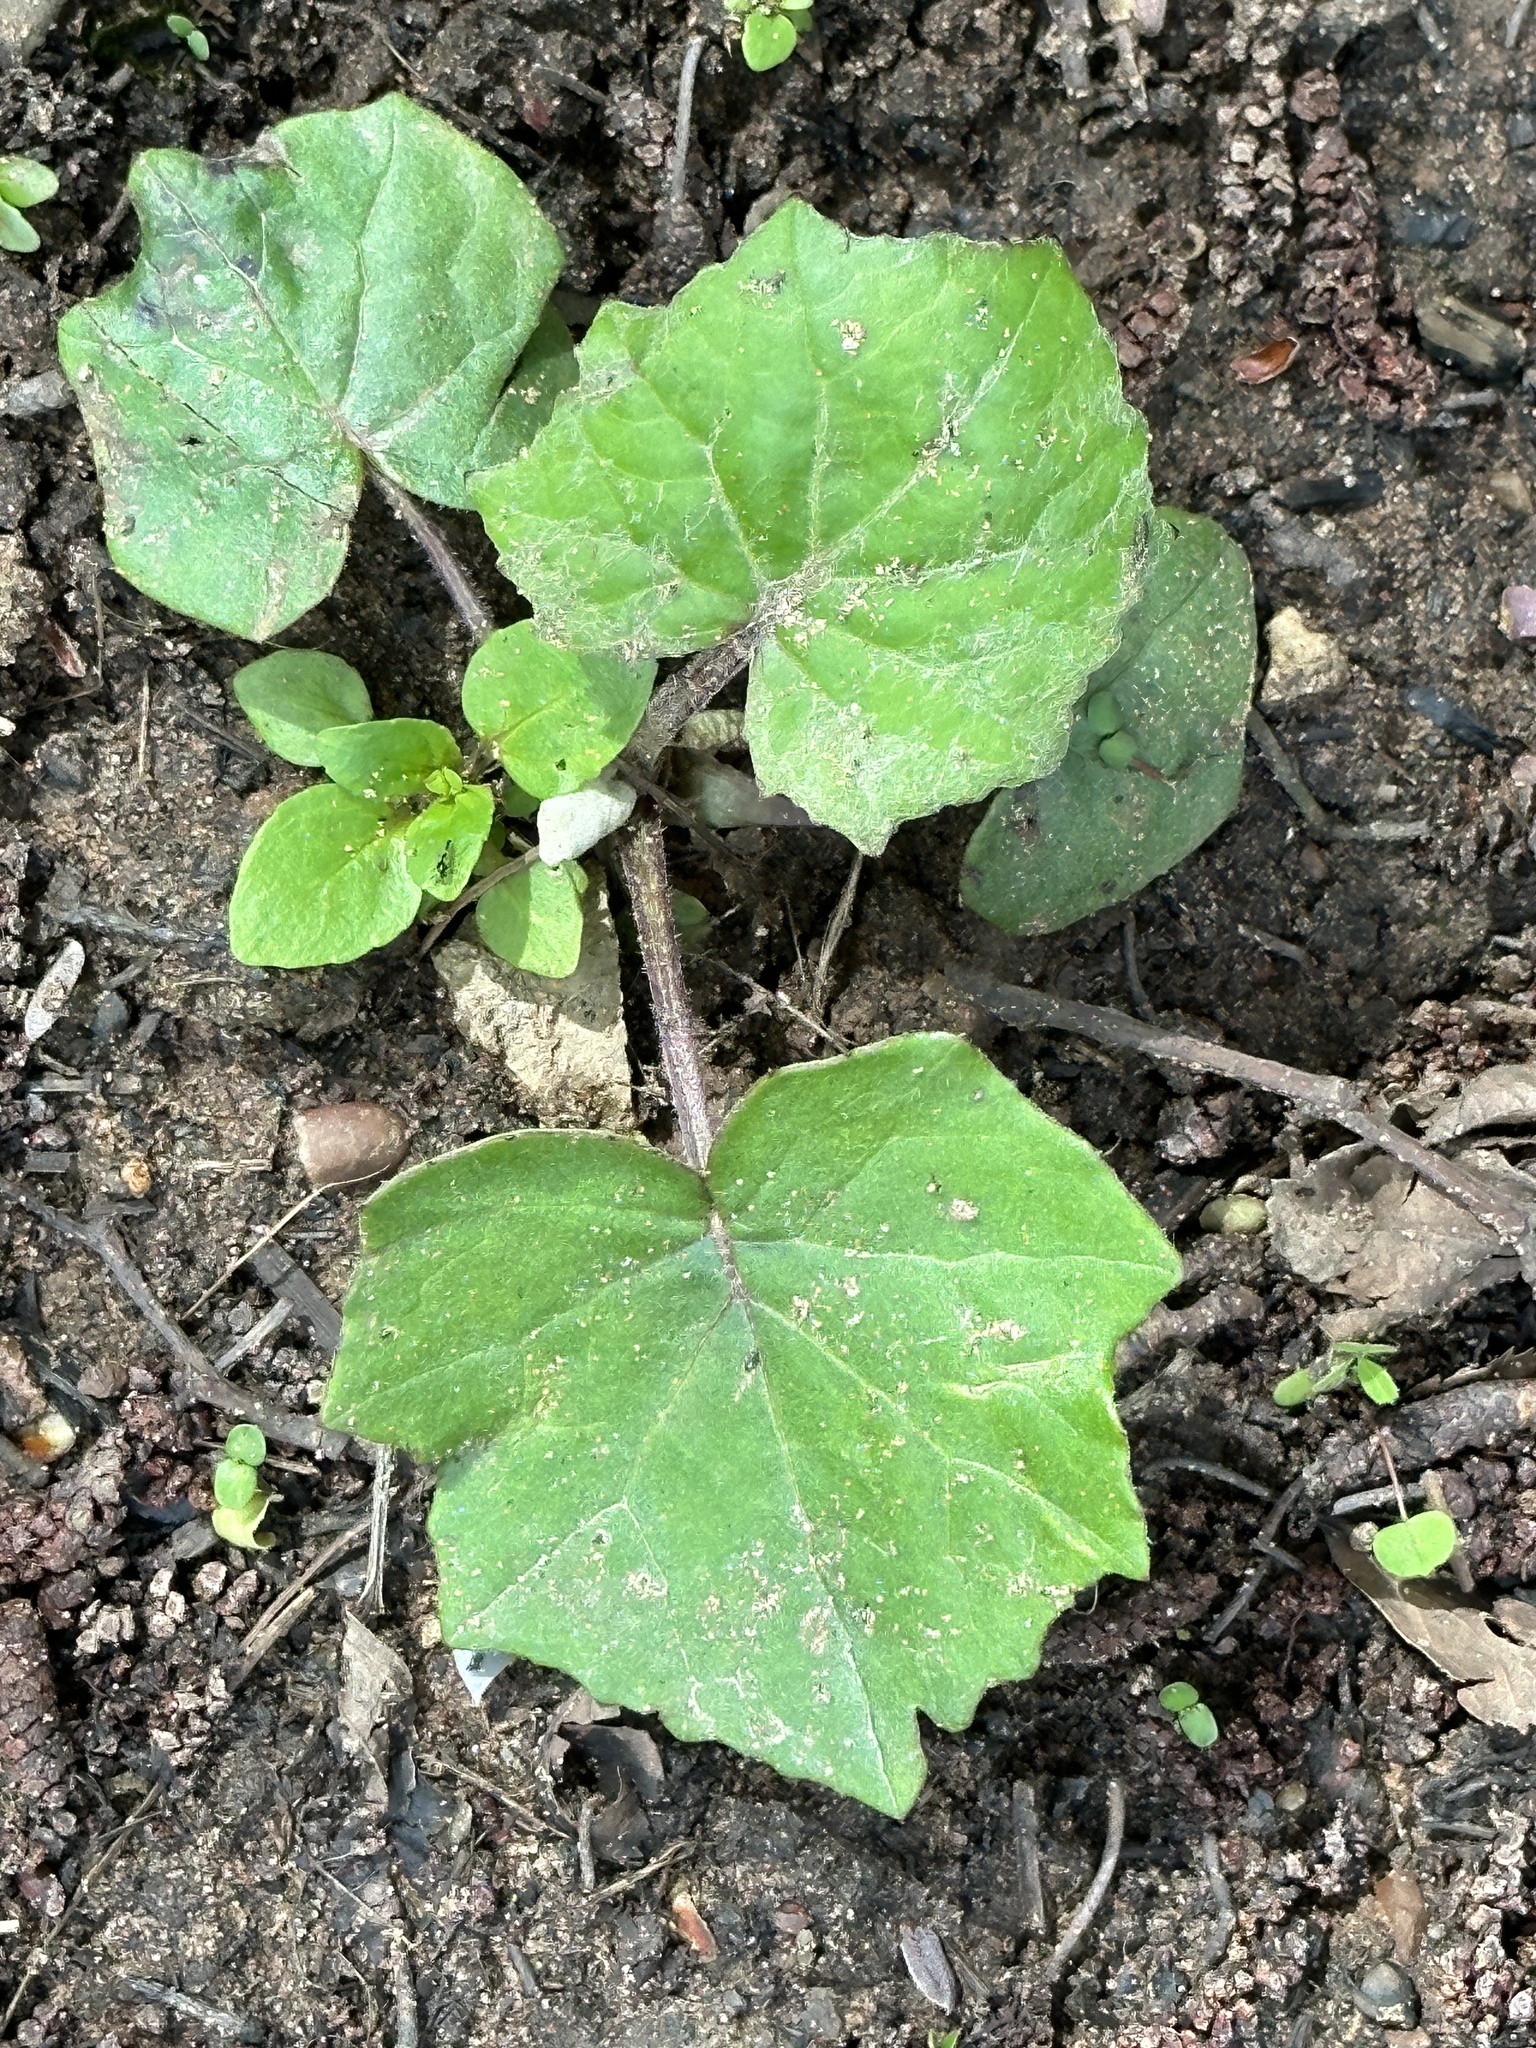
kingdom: Plantae
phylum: Tracheophyta
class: Magnoliopsida
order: Asterales
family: Asteraceae
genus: Tussilago
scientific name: Tussilago farfara
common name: Coltsfoot
